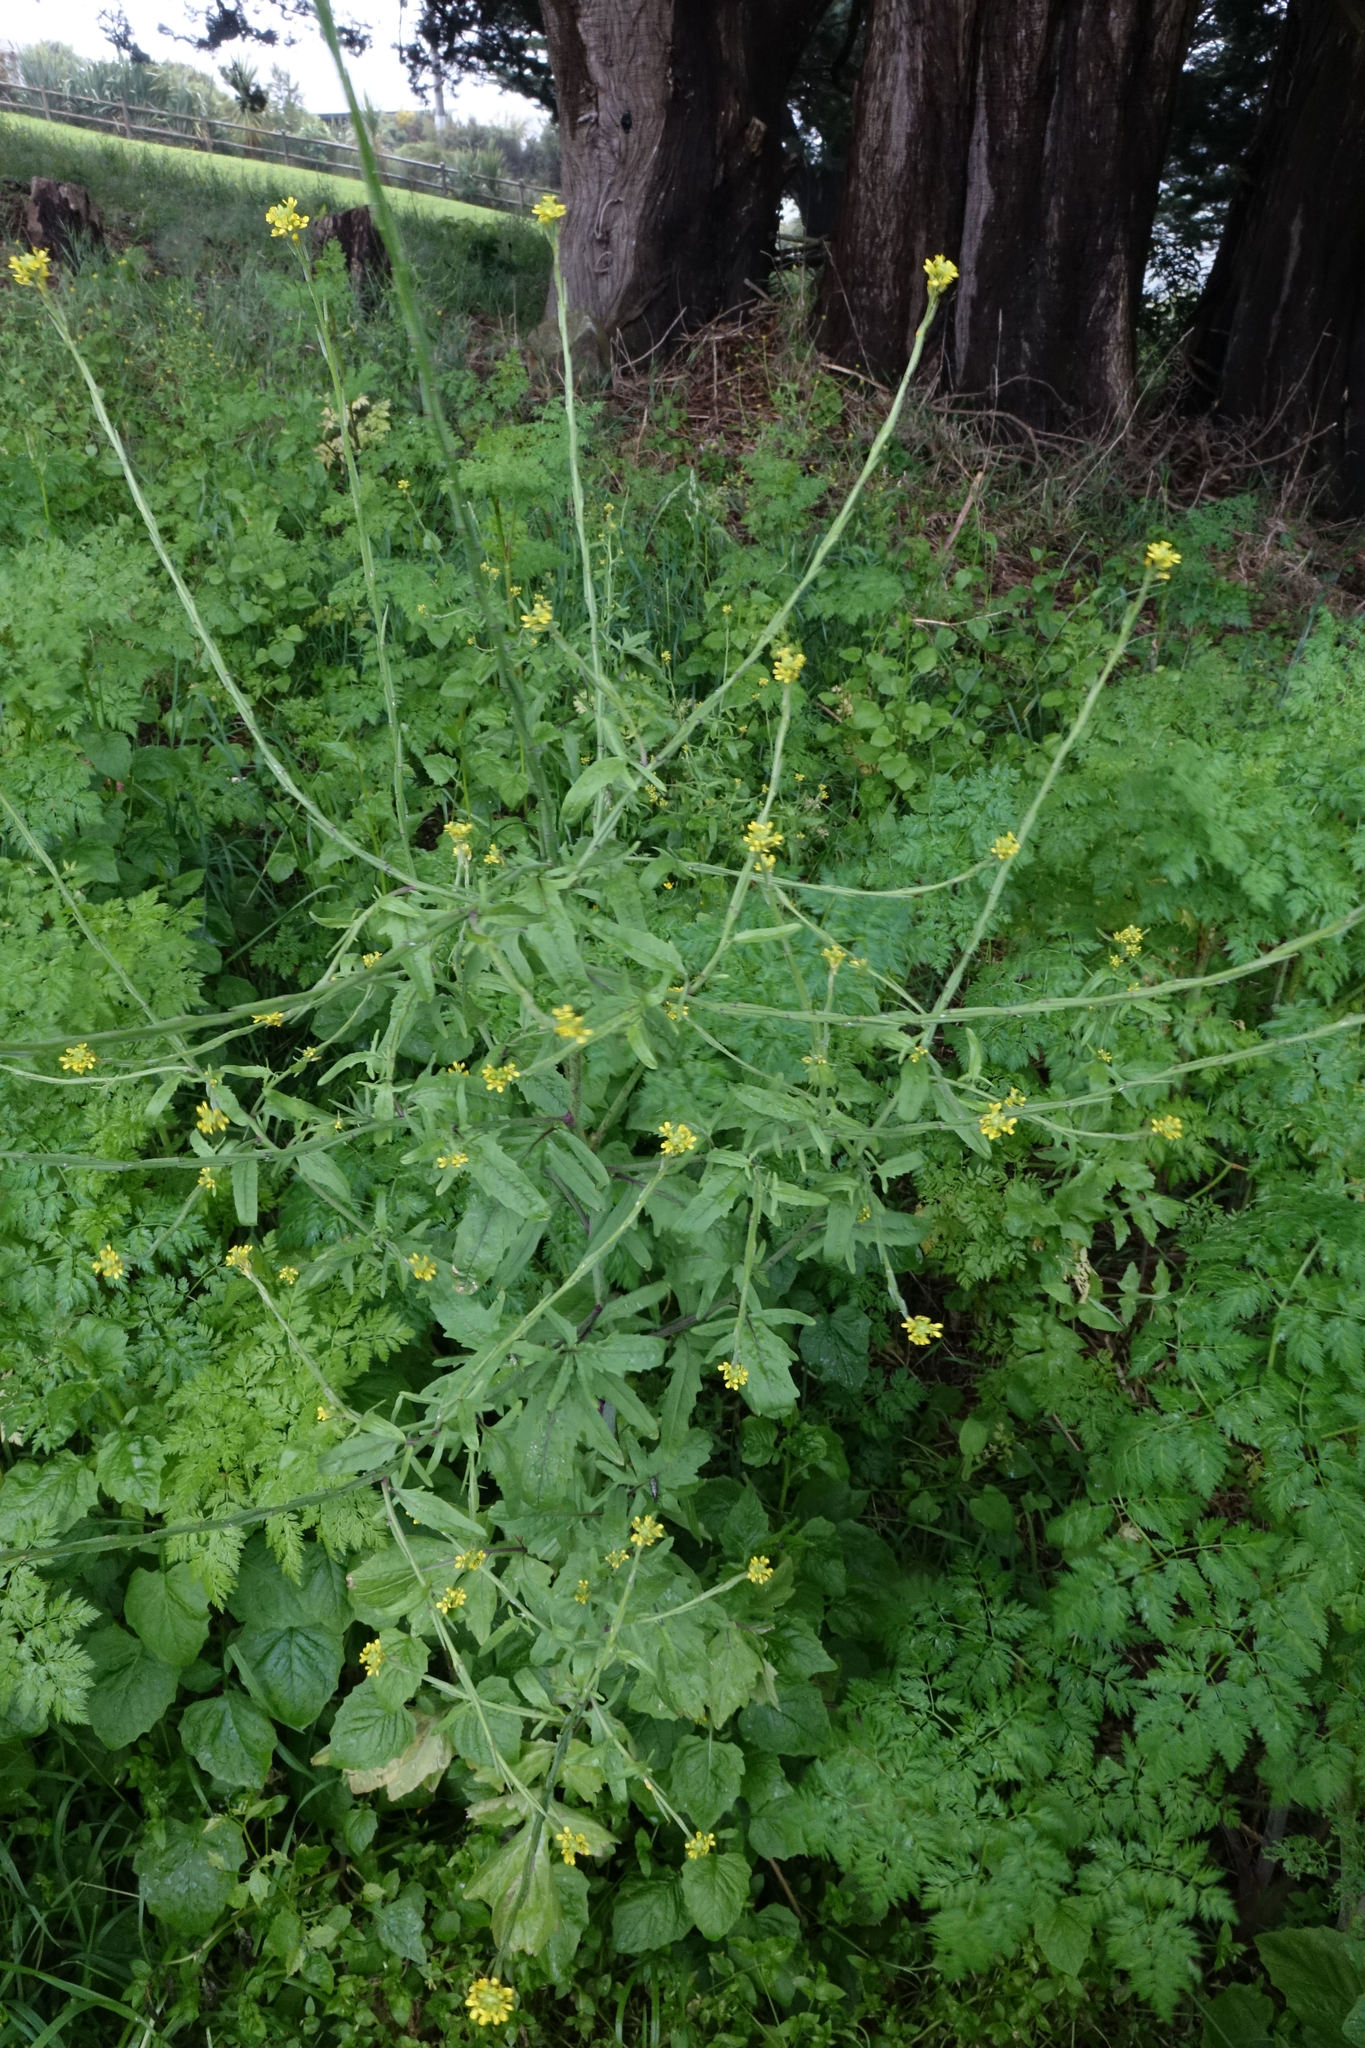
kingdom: Plantae
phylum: Tracheophyta
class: Magnoliopsida
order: Brassicales
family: Brassicaceae
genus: Sisymbrium
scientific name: Sisymbrium officinale
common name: Hedge mustard
